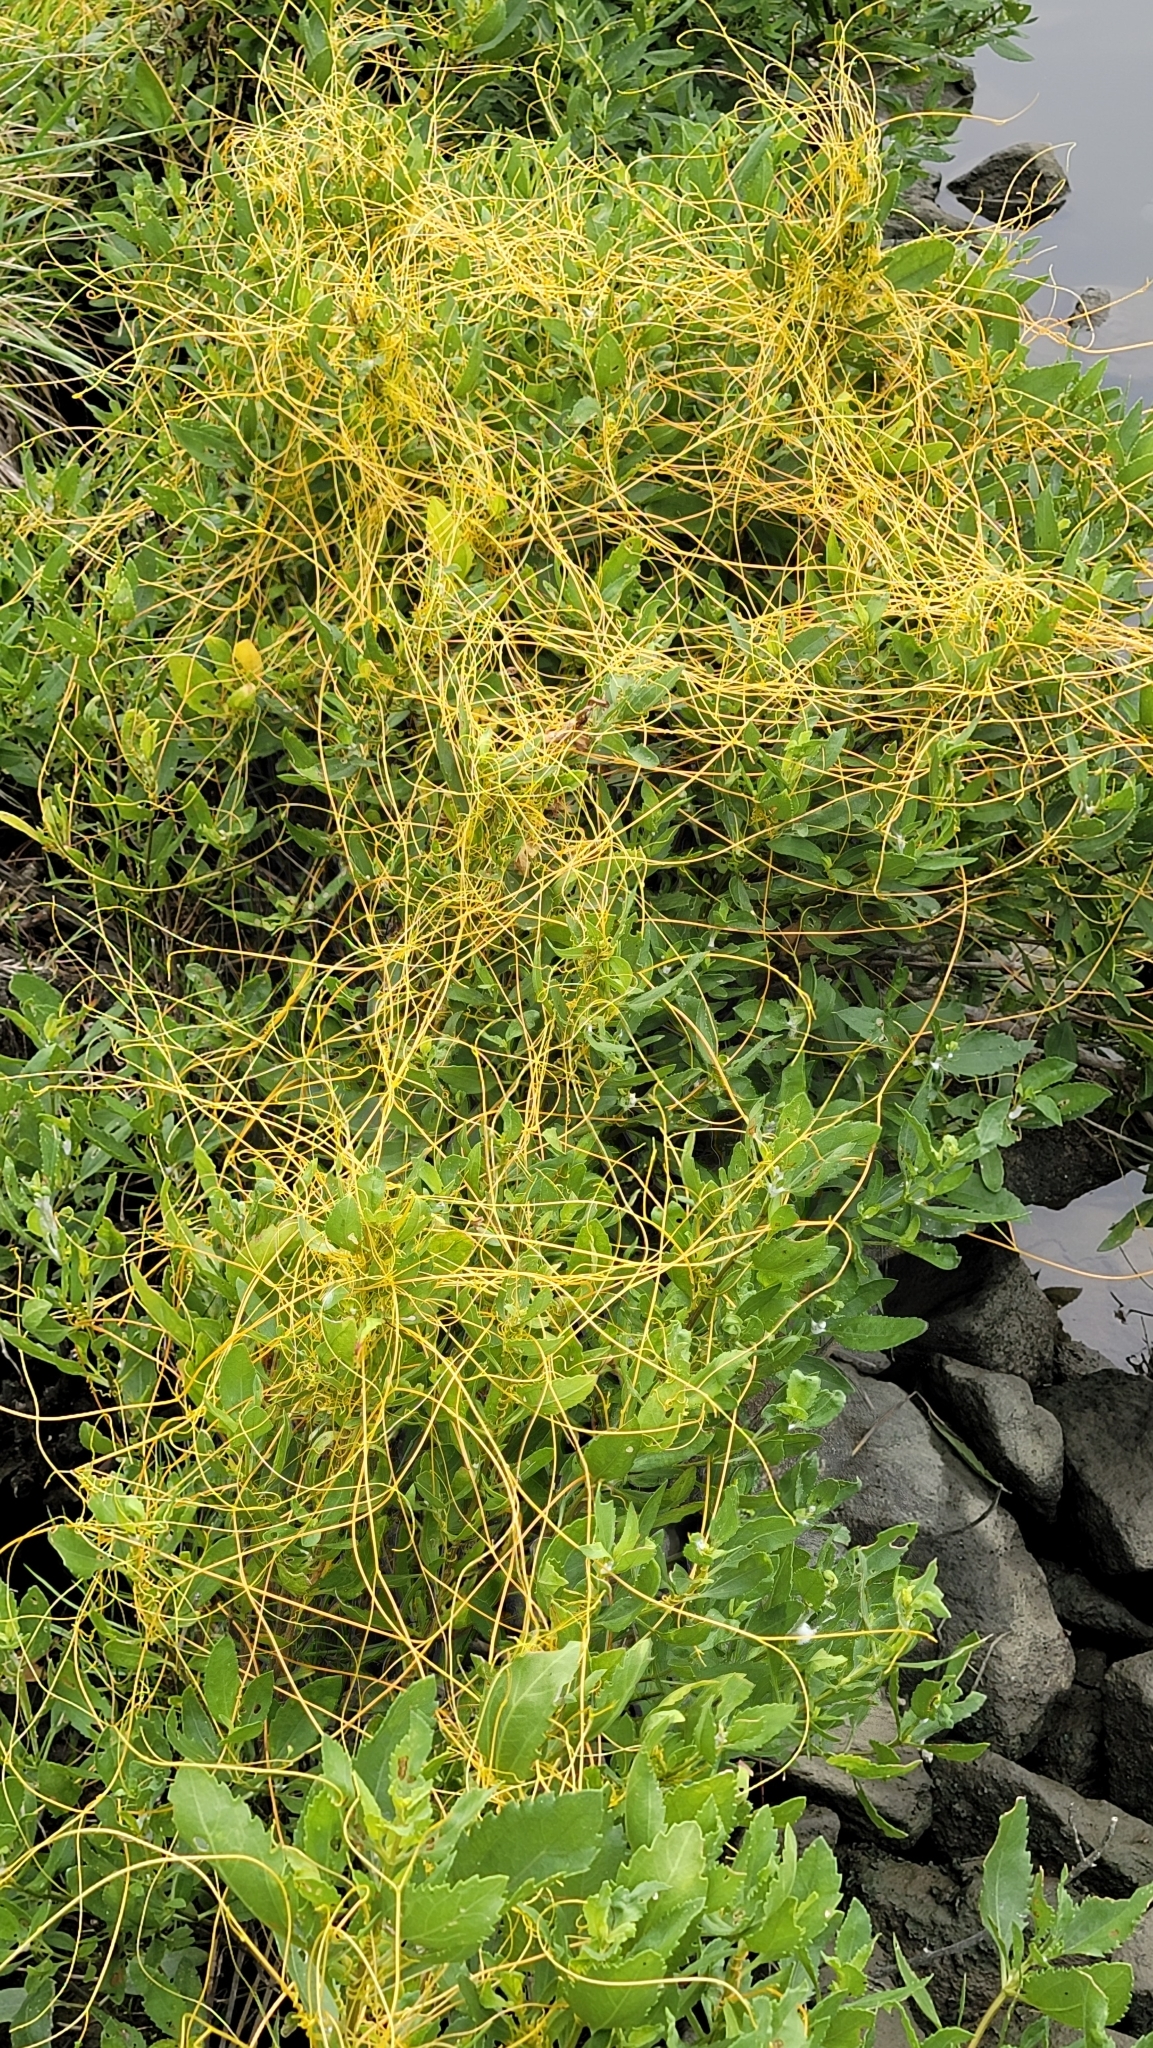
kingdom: Plantae
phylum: Tracheophyta
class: Magnoliopsida
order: Solanales
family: Convolvulaceae
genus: Cuscuta
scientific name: Cuscuta campestris
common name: Yellow dodder
